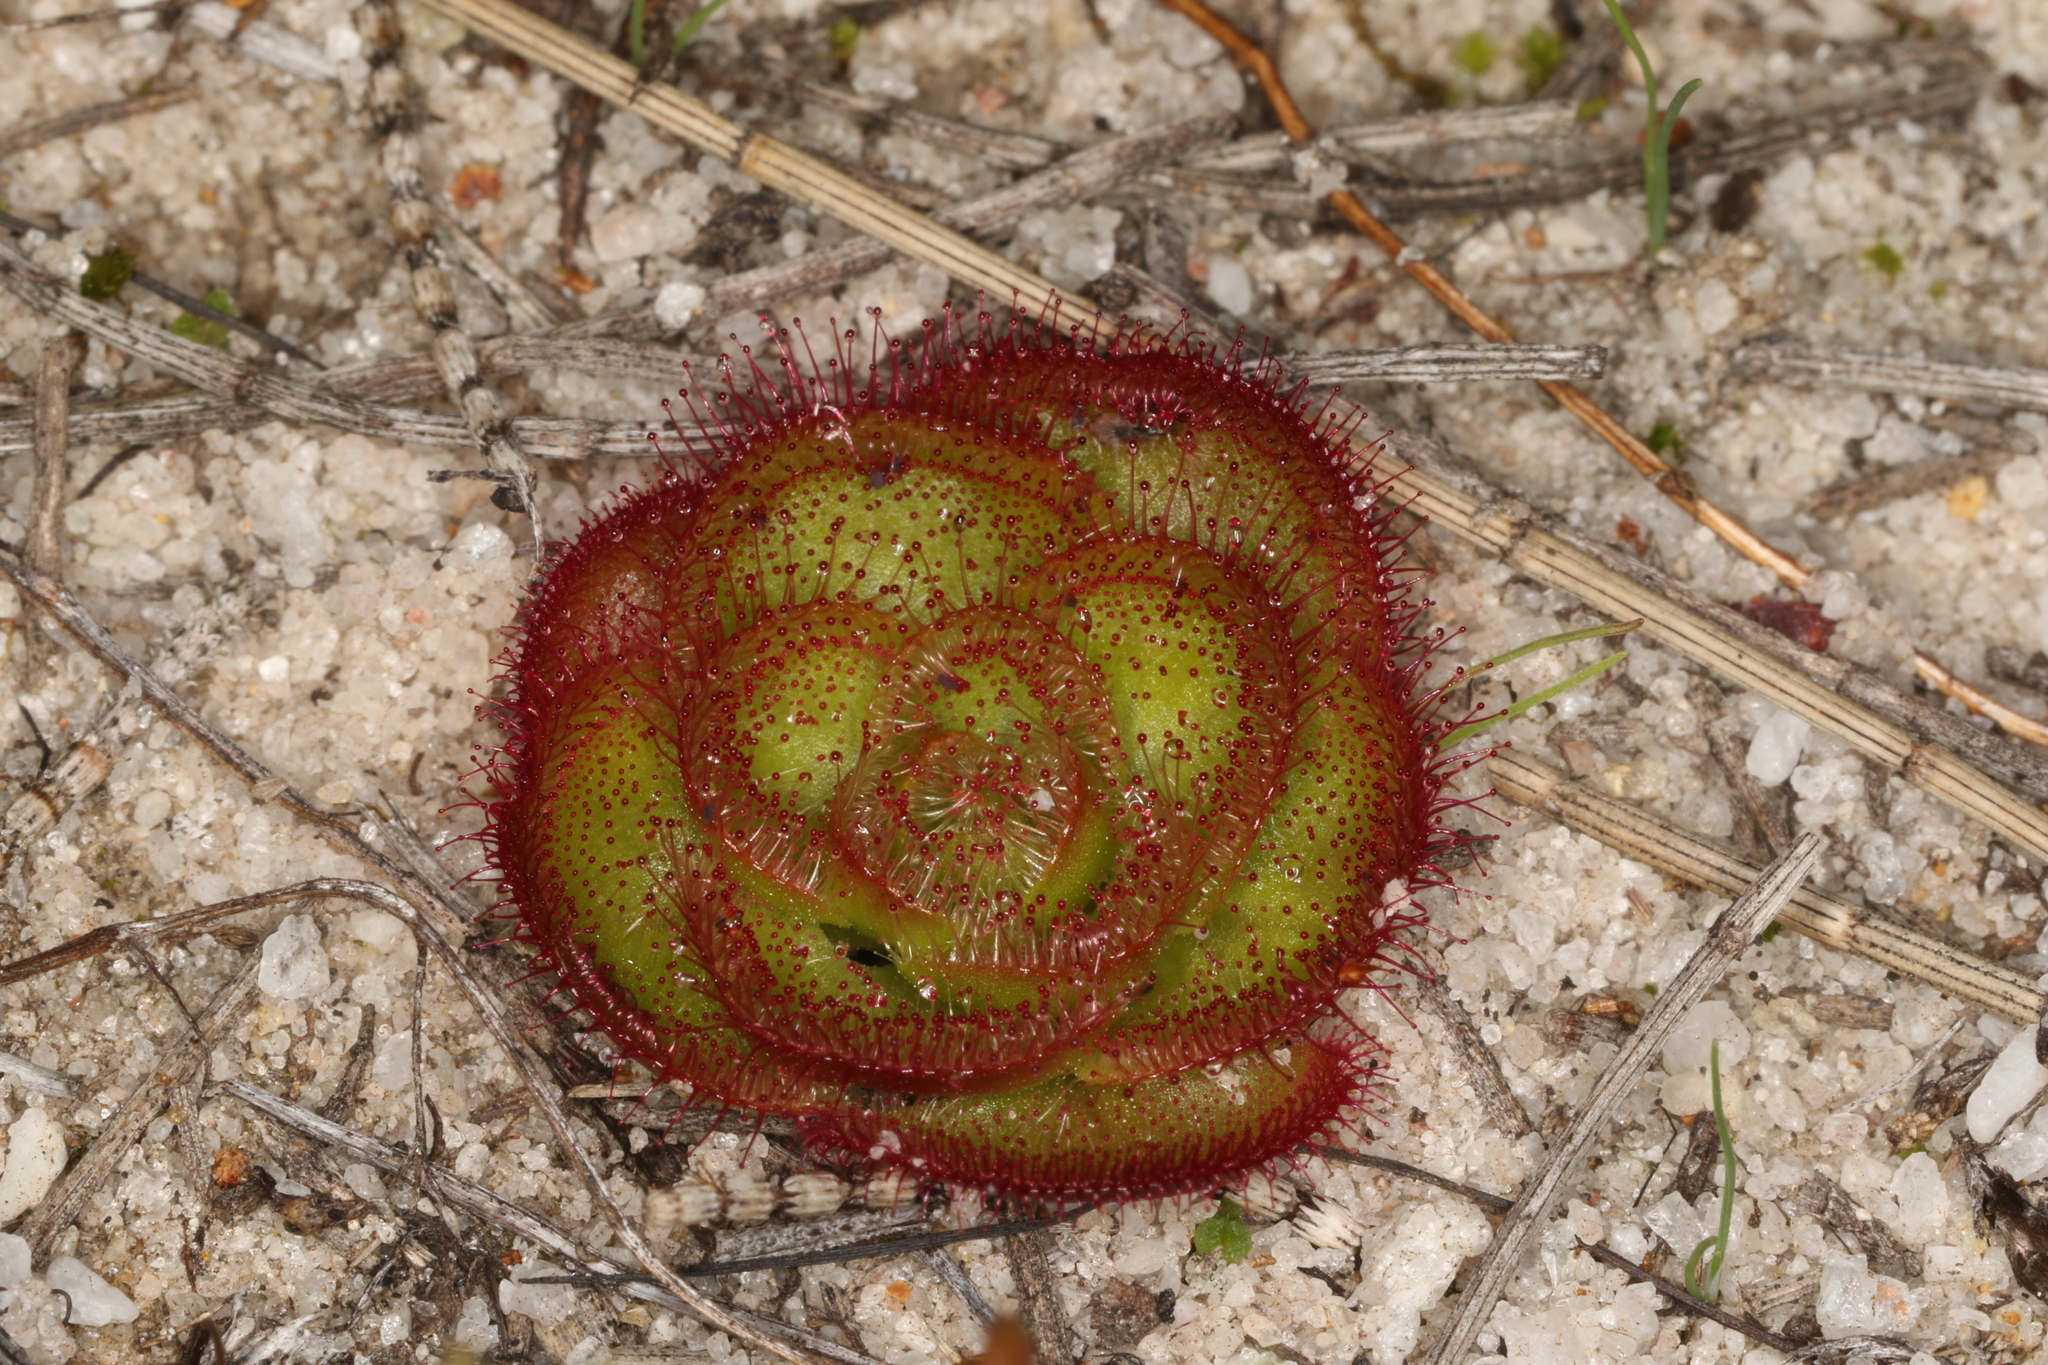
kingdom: Plantae
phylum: Tracheophyta
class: Magnoliopsida
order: Caryophyllales
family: Droseraceae
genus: Drosera
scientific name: Drosera zonaria
